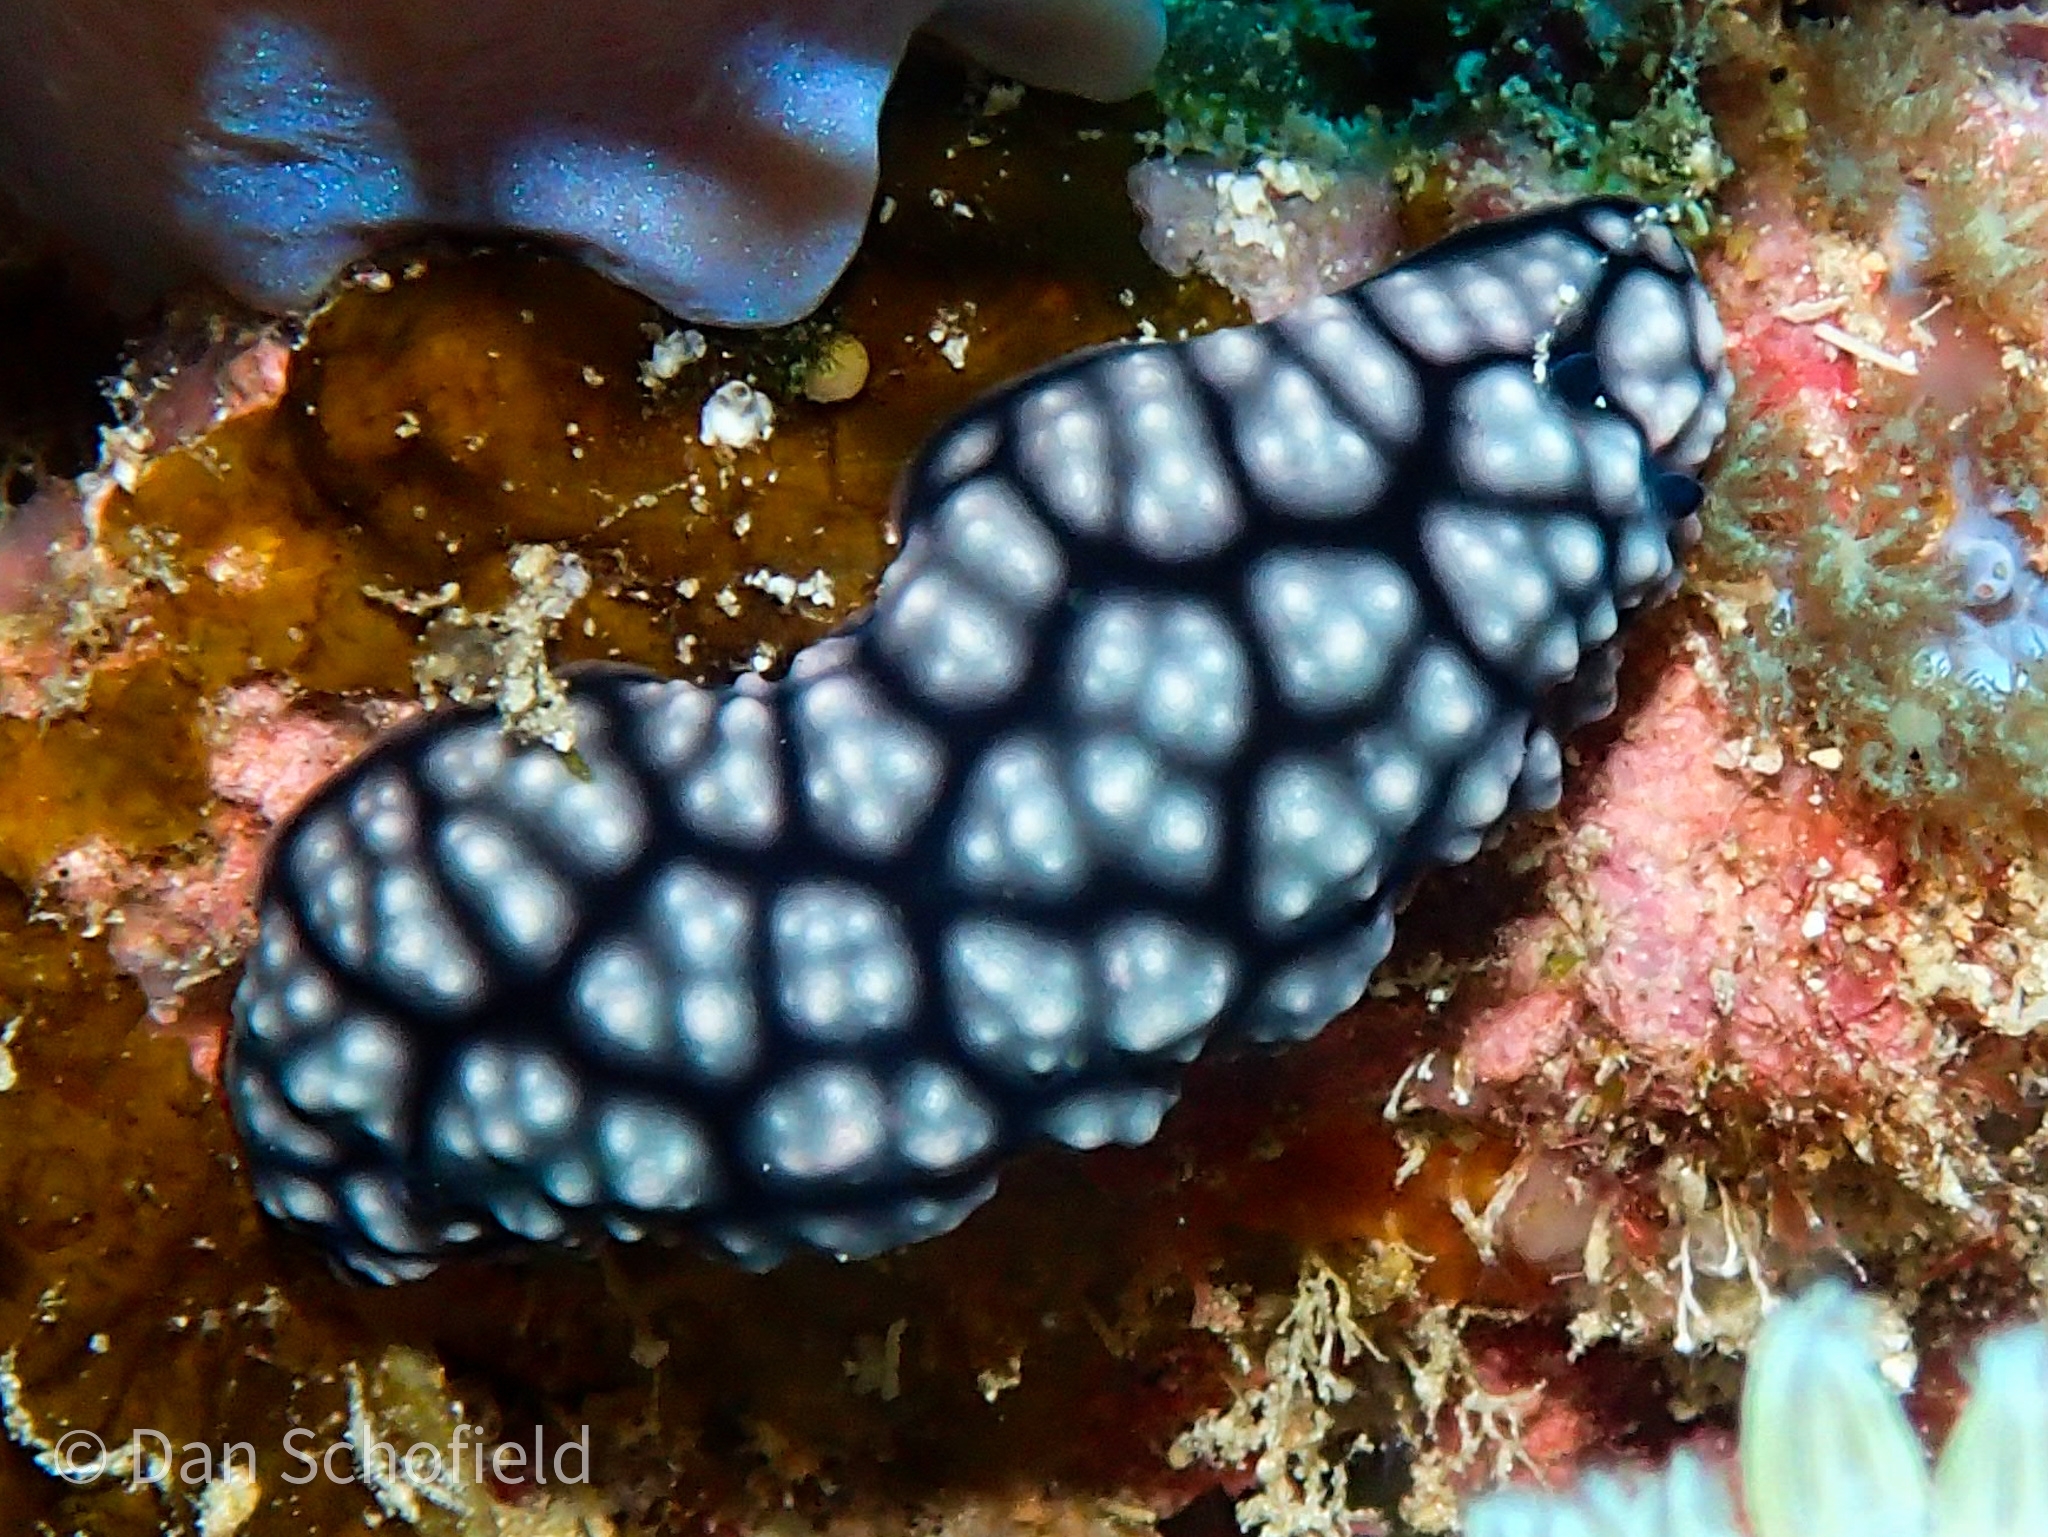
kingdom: Animalia
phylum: Mollusca
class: Gastropoda
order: Nudibranchia
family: Phyllidiidae
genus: Phyllidiella
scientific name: Phyllidiella pustulosa
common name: Pustular phyllidia
